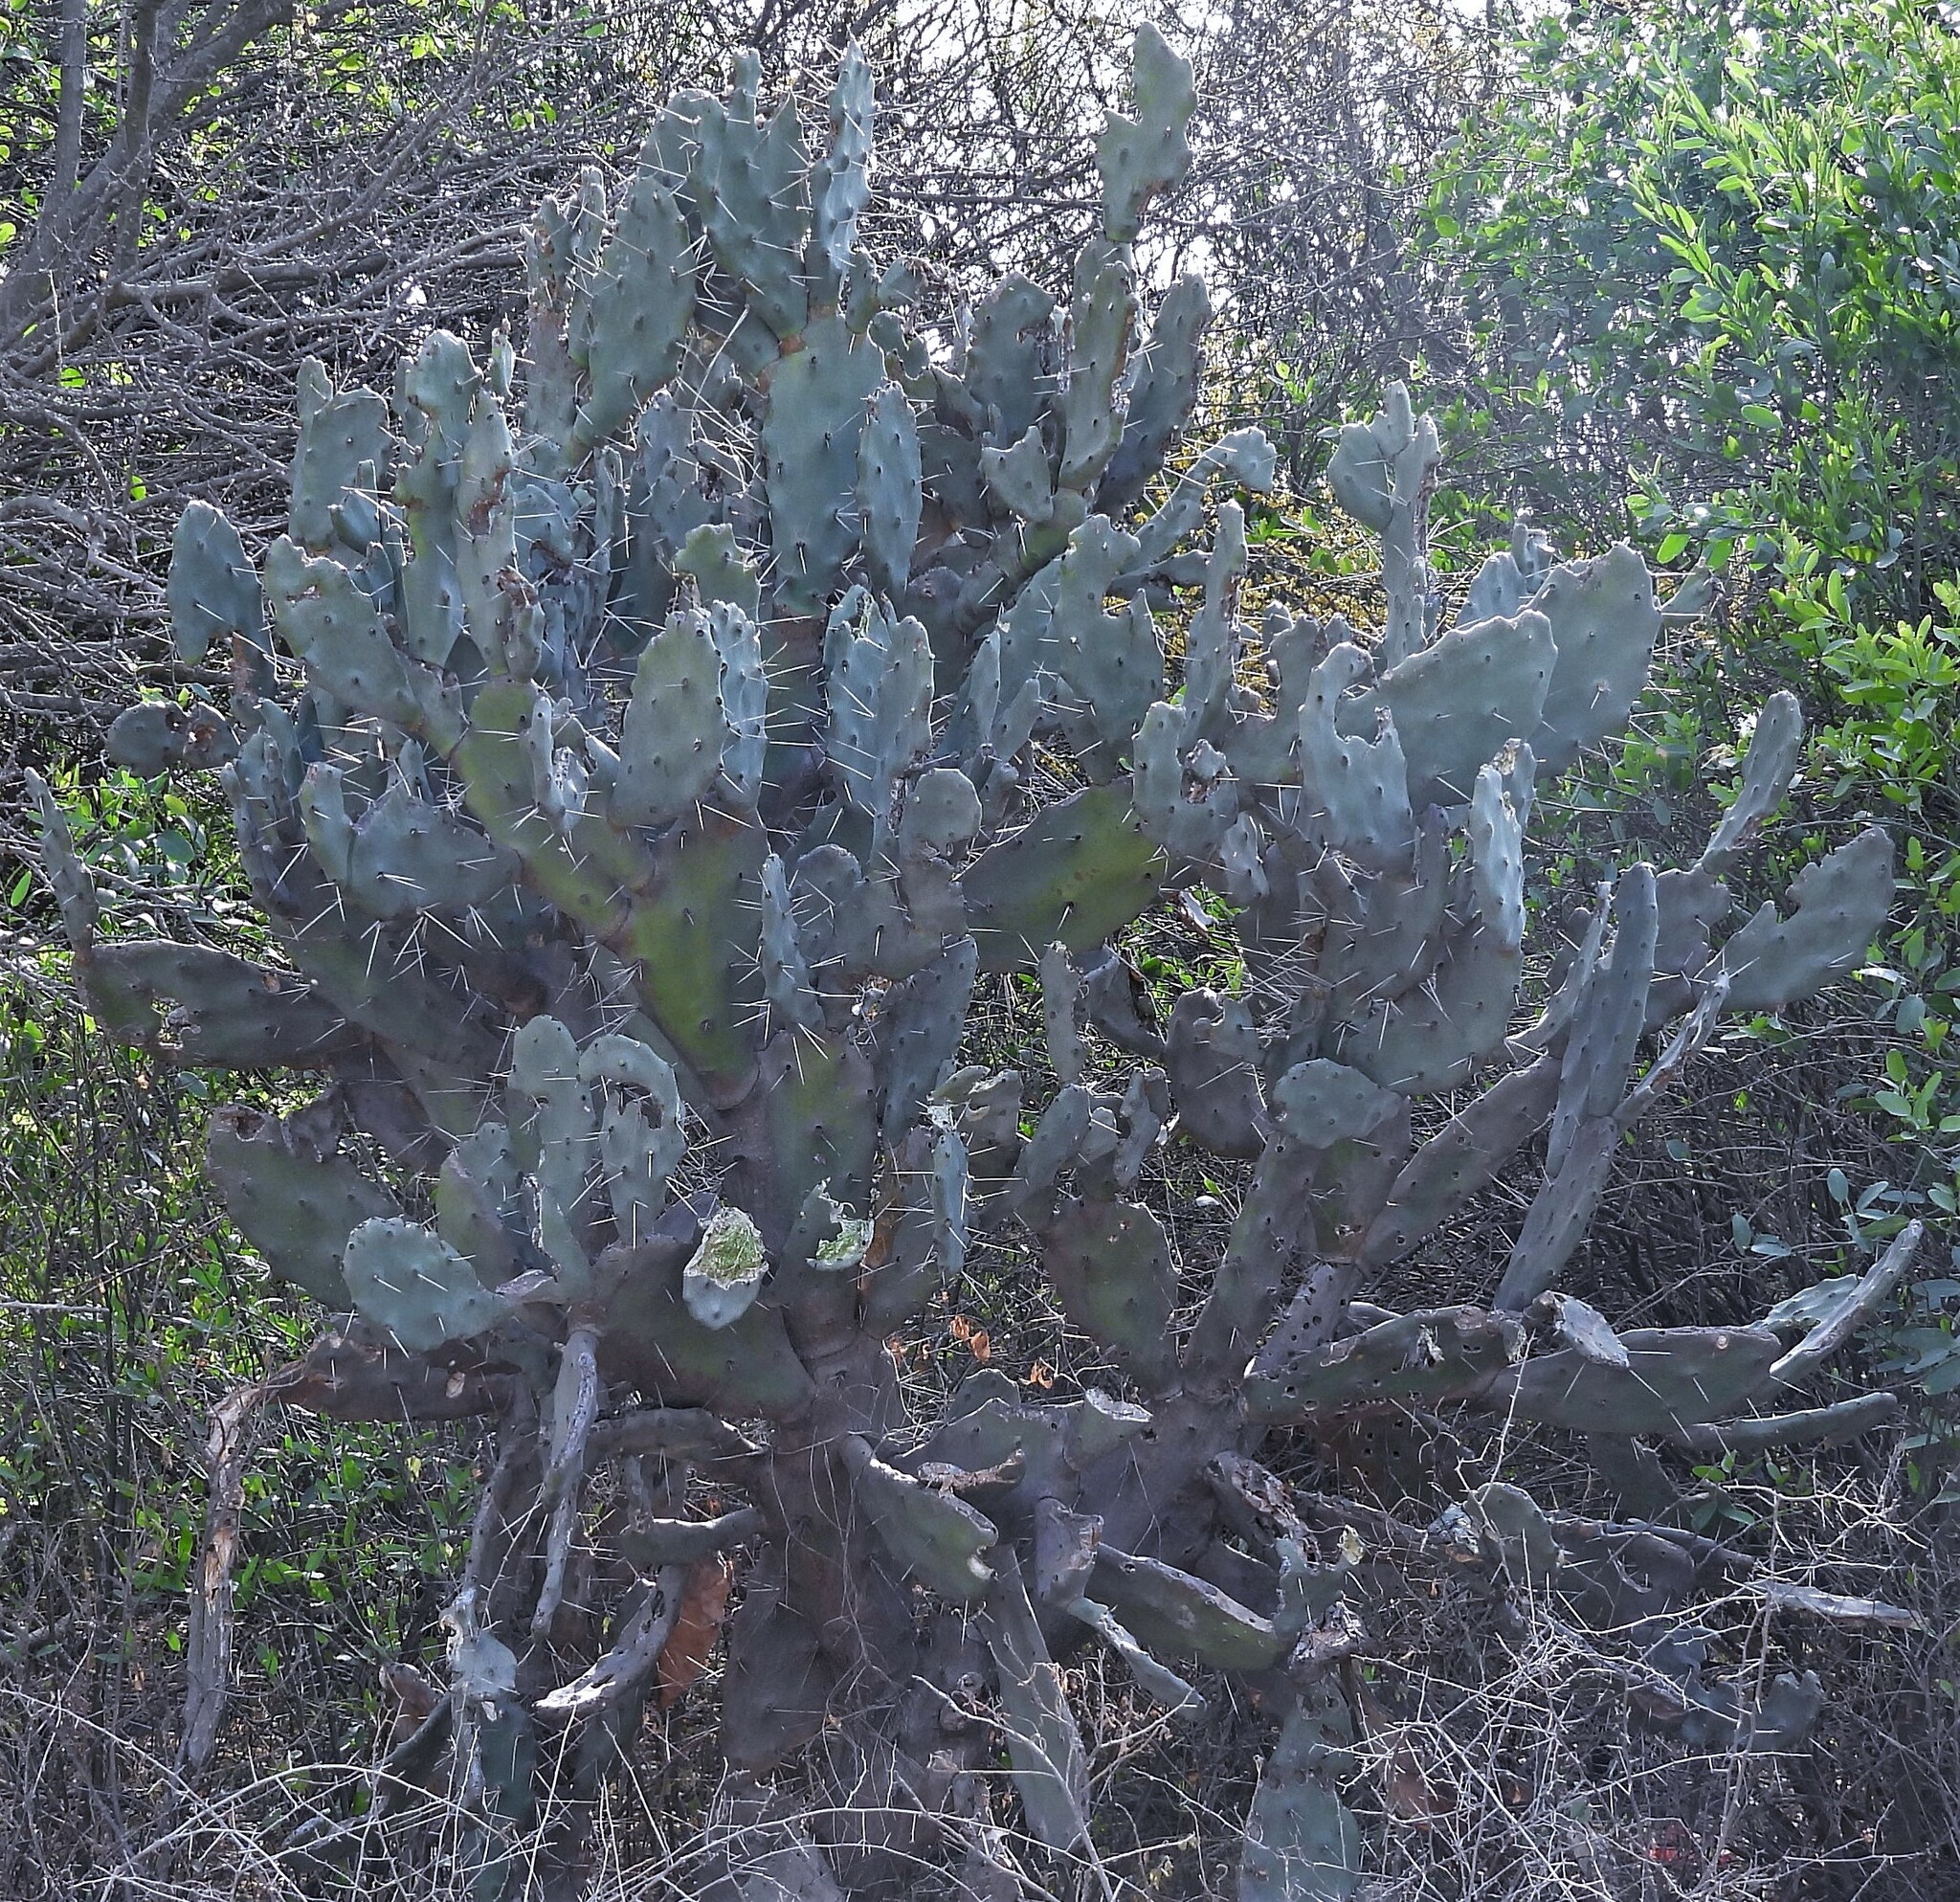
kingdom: Plantae
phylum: Tracheophyta
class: Magnoliopsida
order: Caryophyllales
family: Cactaceae
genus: Opuntia
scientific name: Opuntia quimilo
